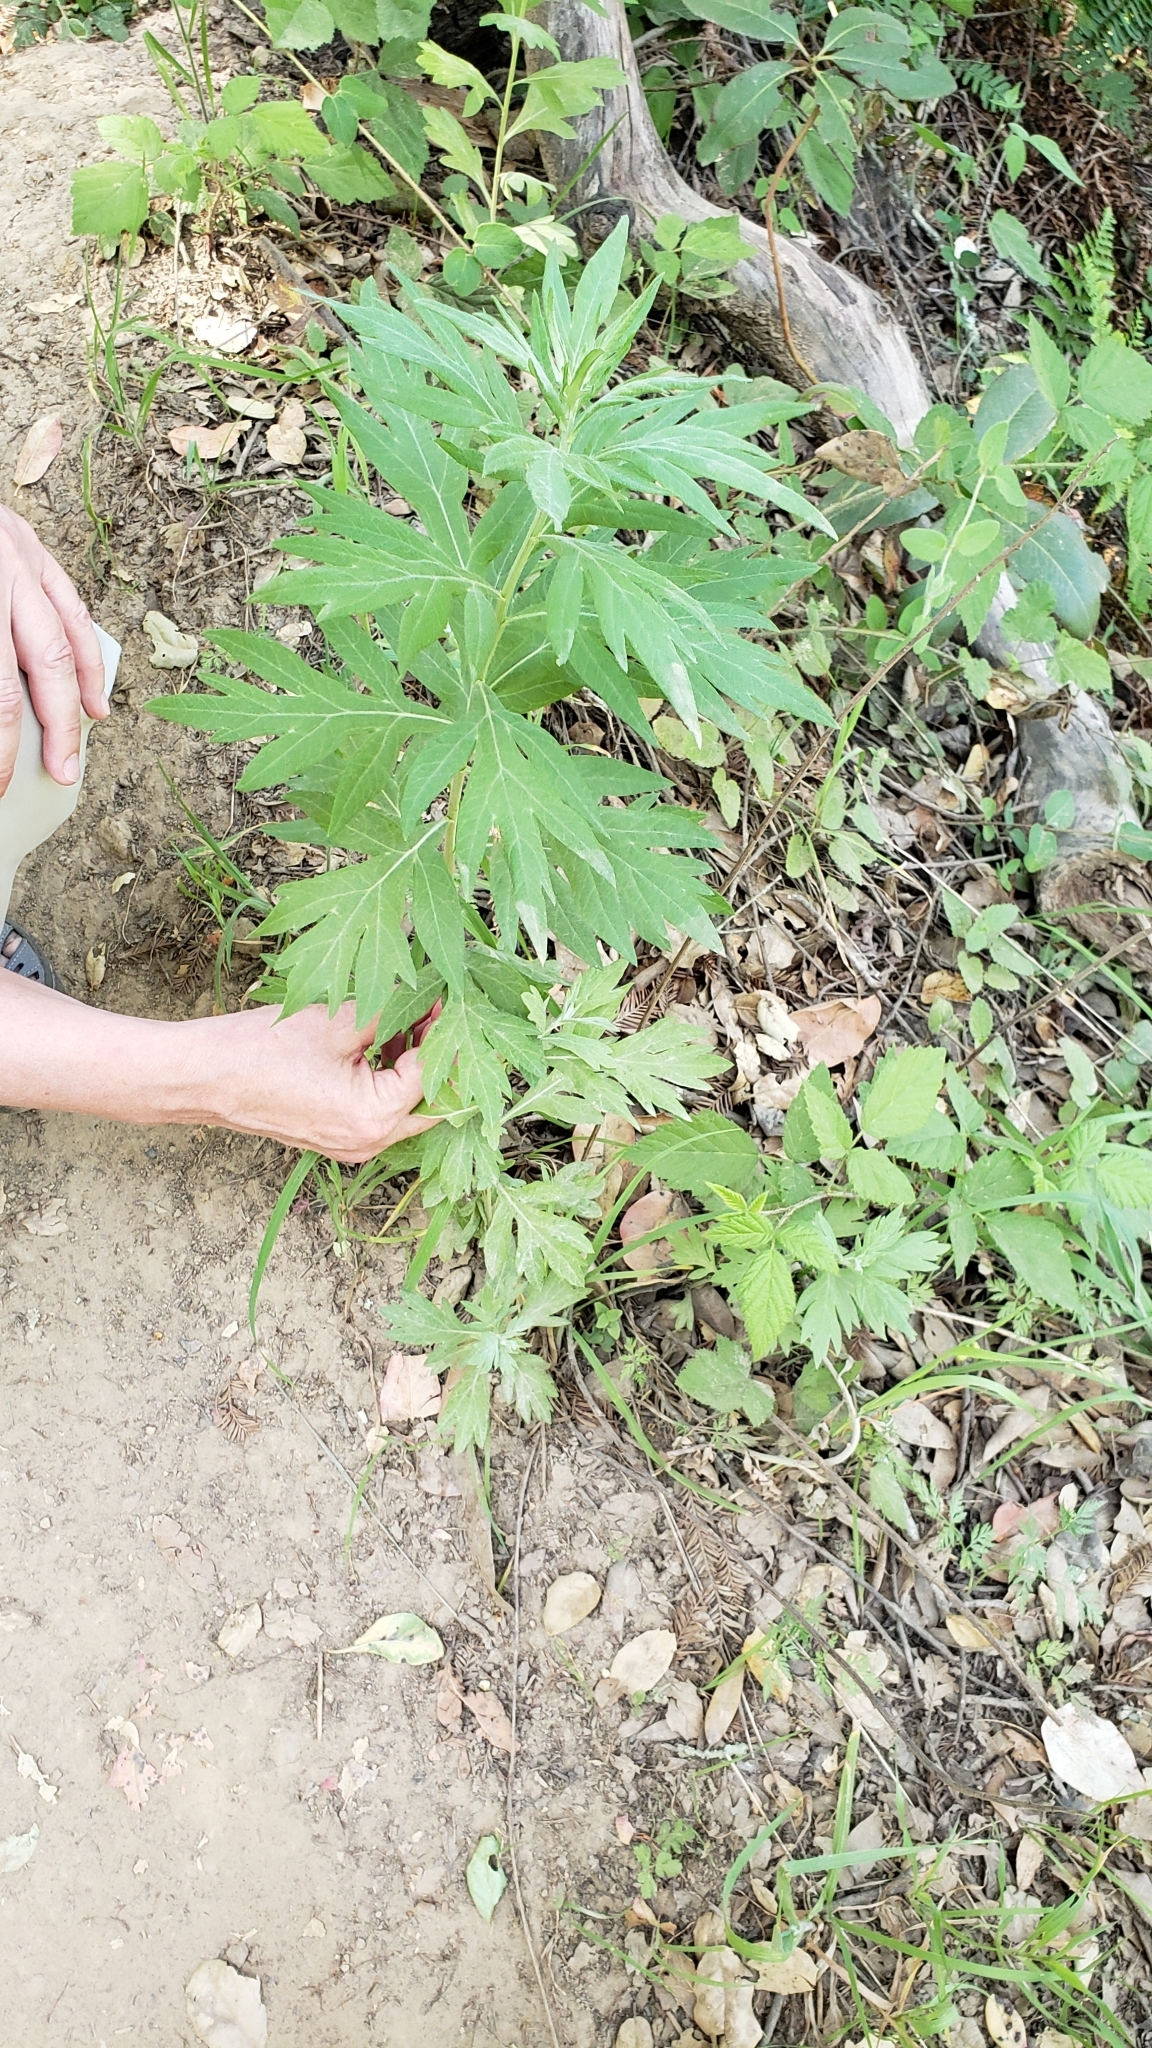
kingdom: Plantae
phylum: Tracheophyta
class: Magnoliopsida
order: Asterales
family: Asteraceae
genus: Artemisia
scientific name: Artemisia douglasiana
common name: Northwest mugwort
